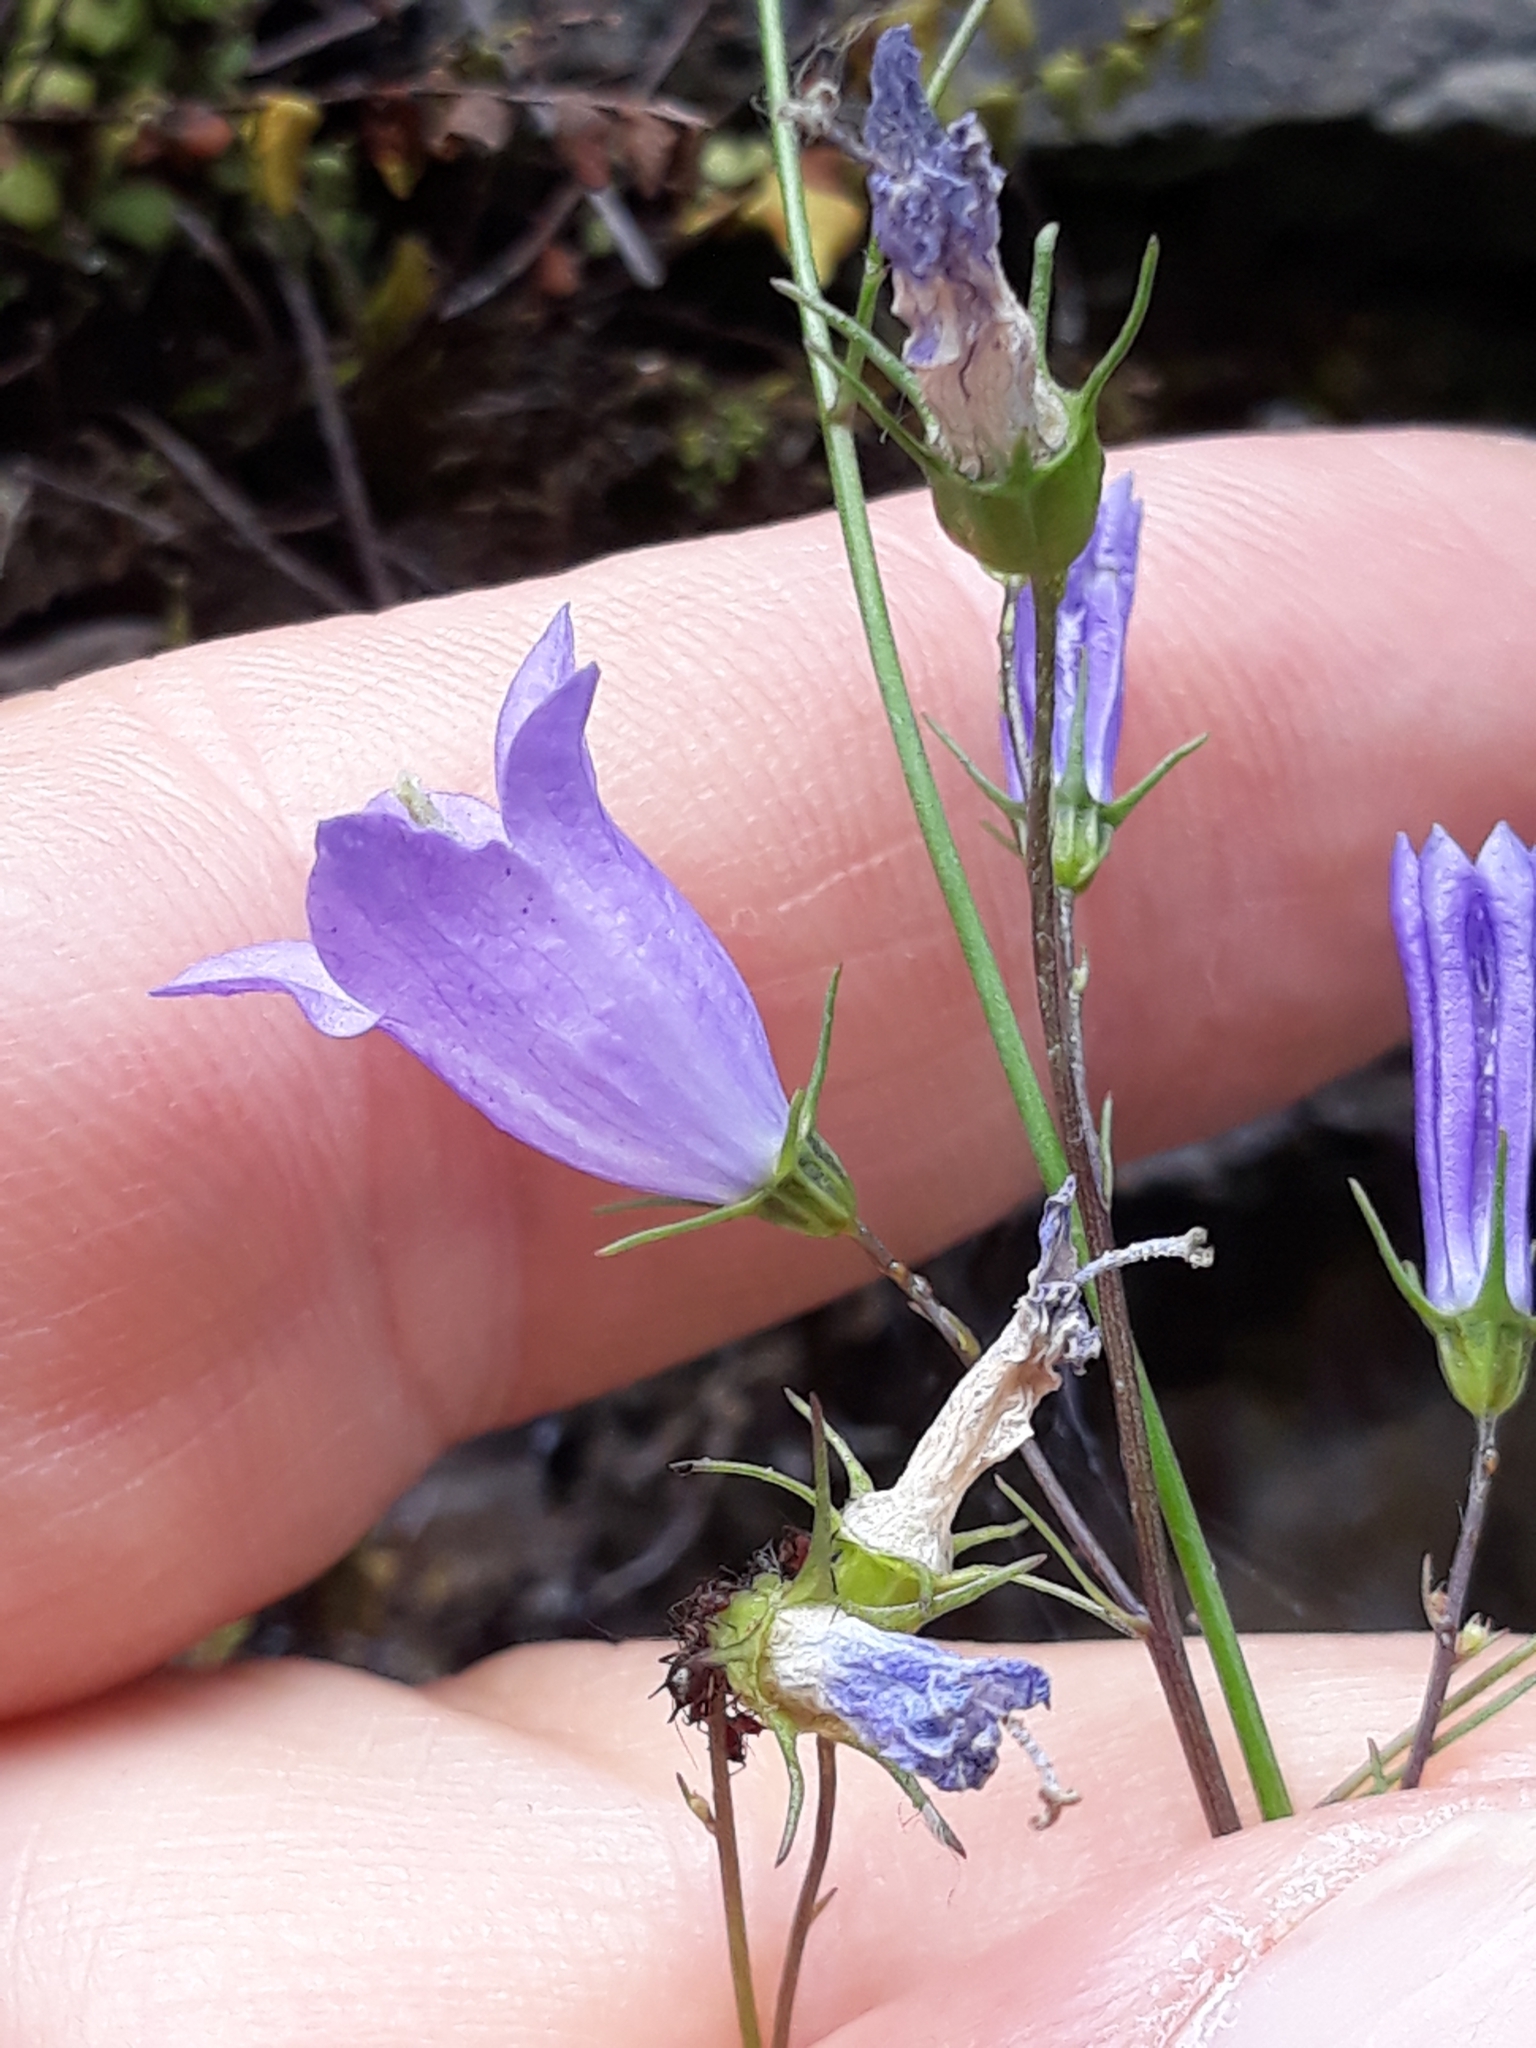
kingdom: Plantae
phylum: Tracheophyta
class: Magnoliopsida
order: Asterales
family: Campanulaceae
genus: Campanula
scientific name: Campanula rotundifolia
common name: Harebell
